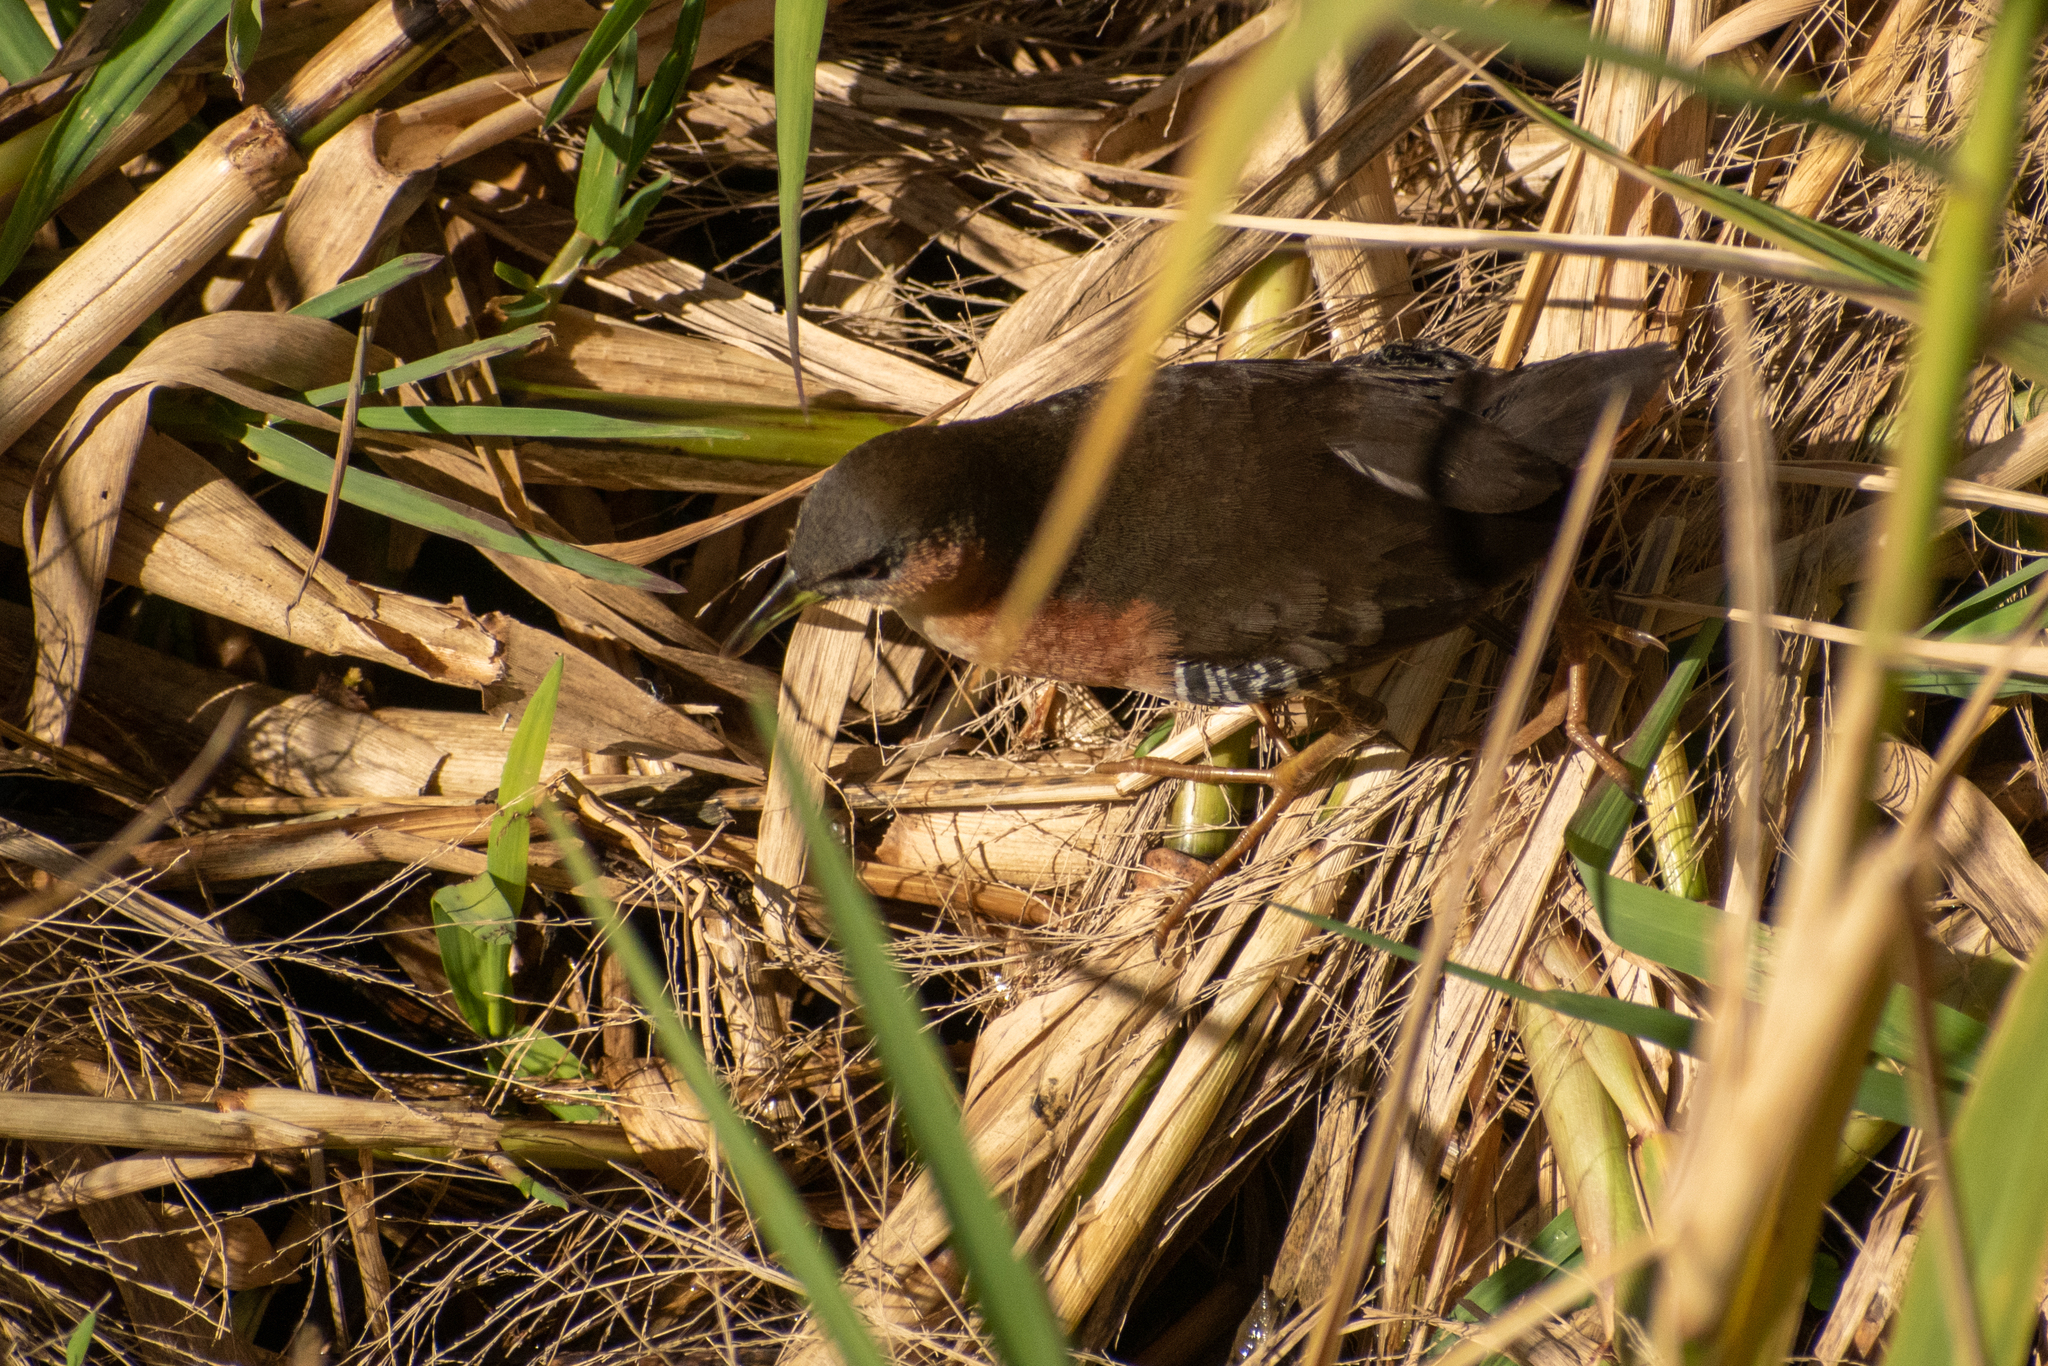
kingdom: Animalia
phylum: Chordata
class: Aves
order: Gruiformes
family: Rallidae
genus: Laterallus
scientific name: Laterallus melanophaius
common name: Rufous-sided crake
